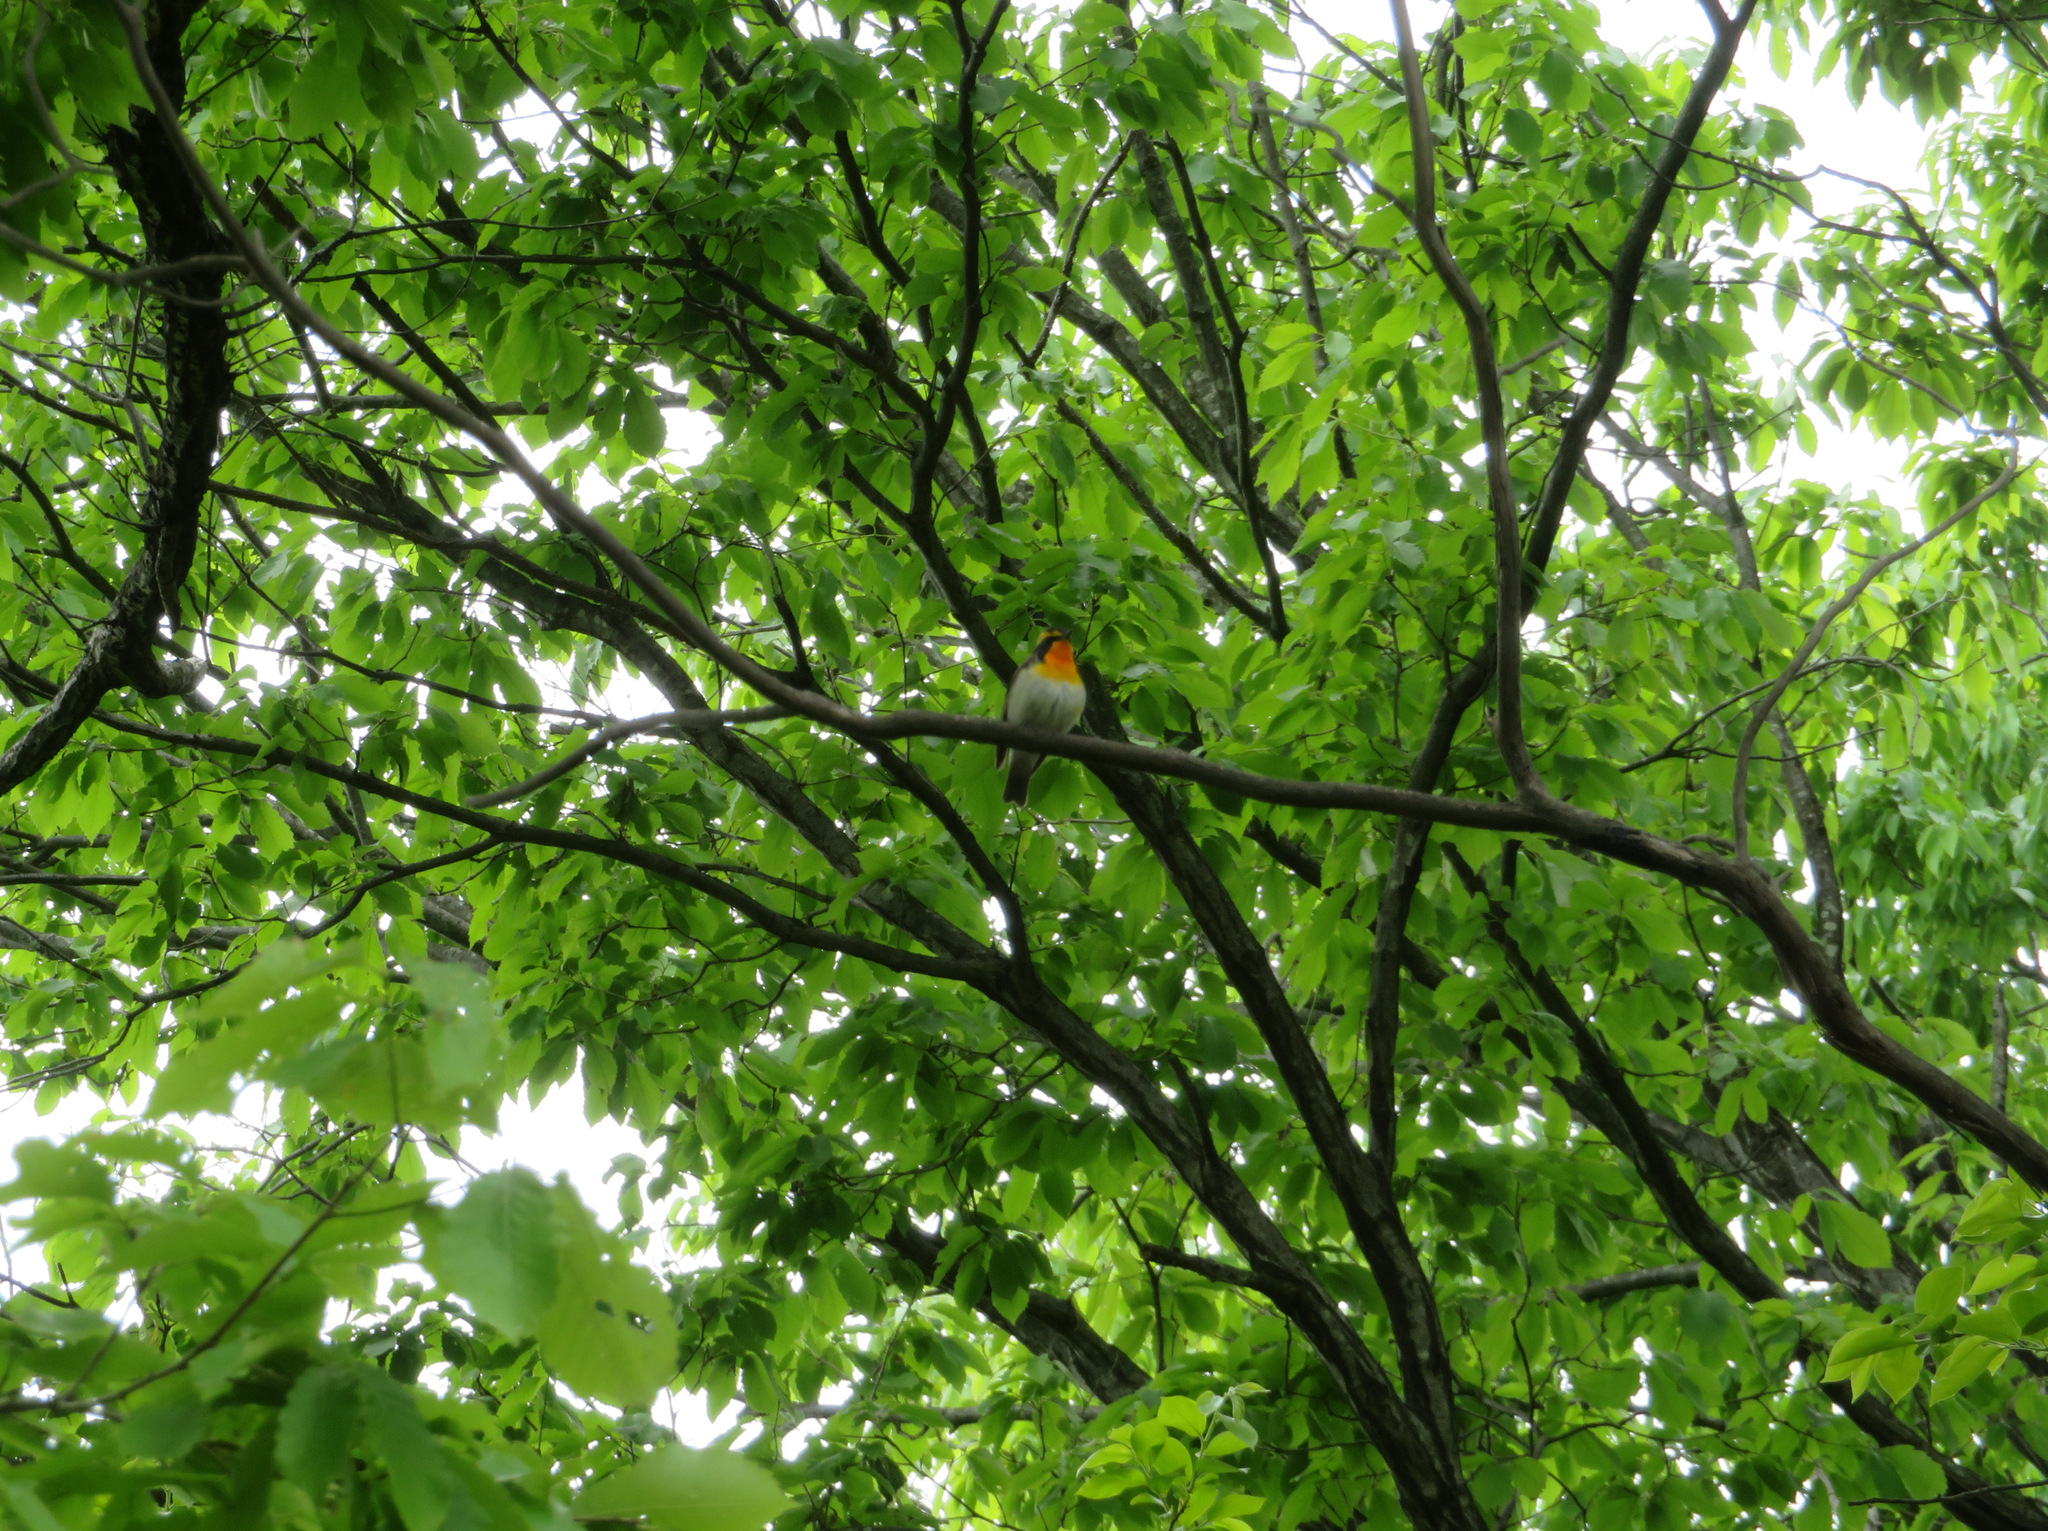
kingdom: Animalia
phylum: Chordata
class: Aves
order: Passeriformes
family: Muscicapidae
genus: Ficedula
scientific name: Ficedula narcissina
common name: Narcissus flycatcher
